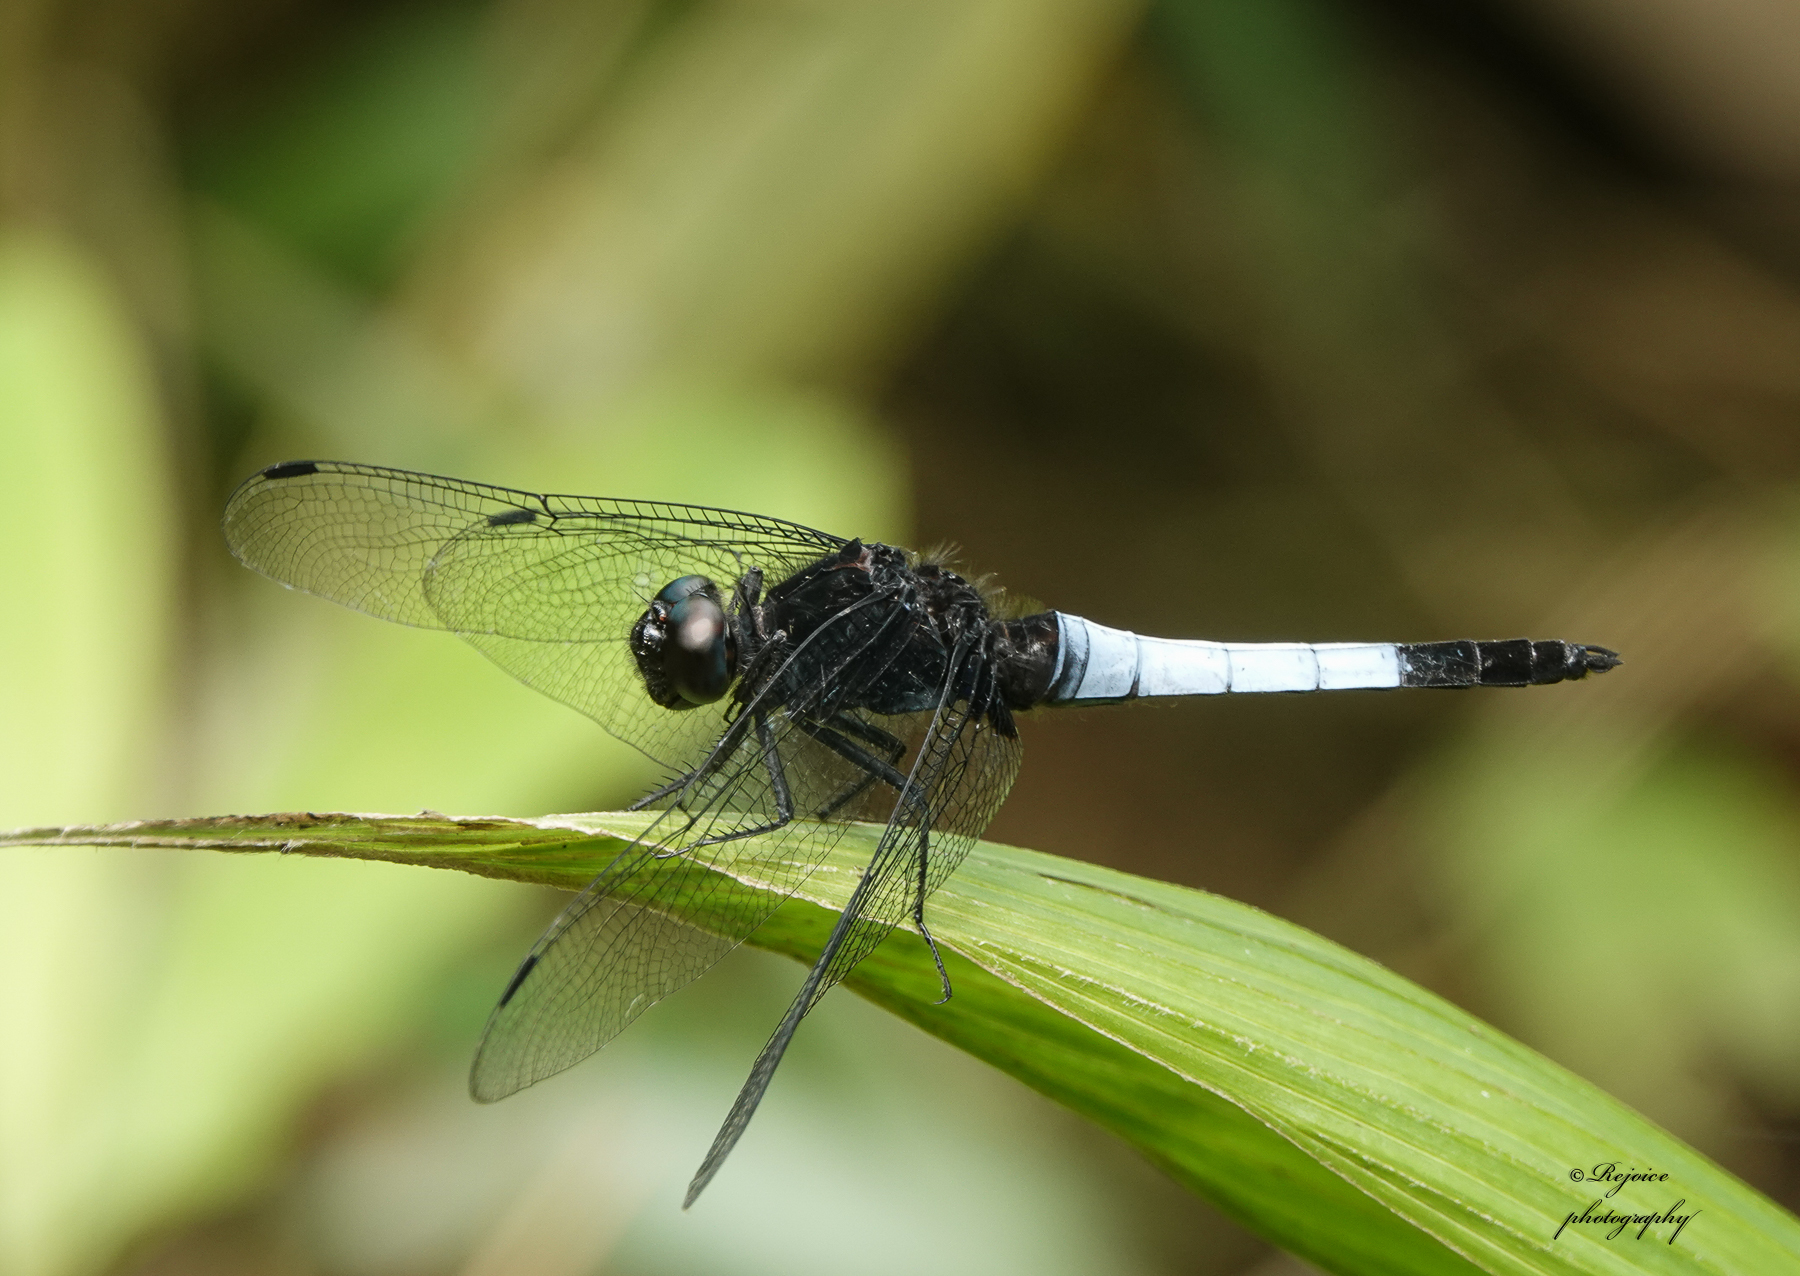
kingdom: Animalia
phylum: Arthropoda
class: Insecta
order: Odonata
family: Libellulidae
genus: Orthetrum
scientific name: Orthetrum triangulare
